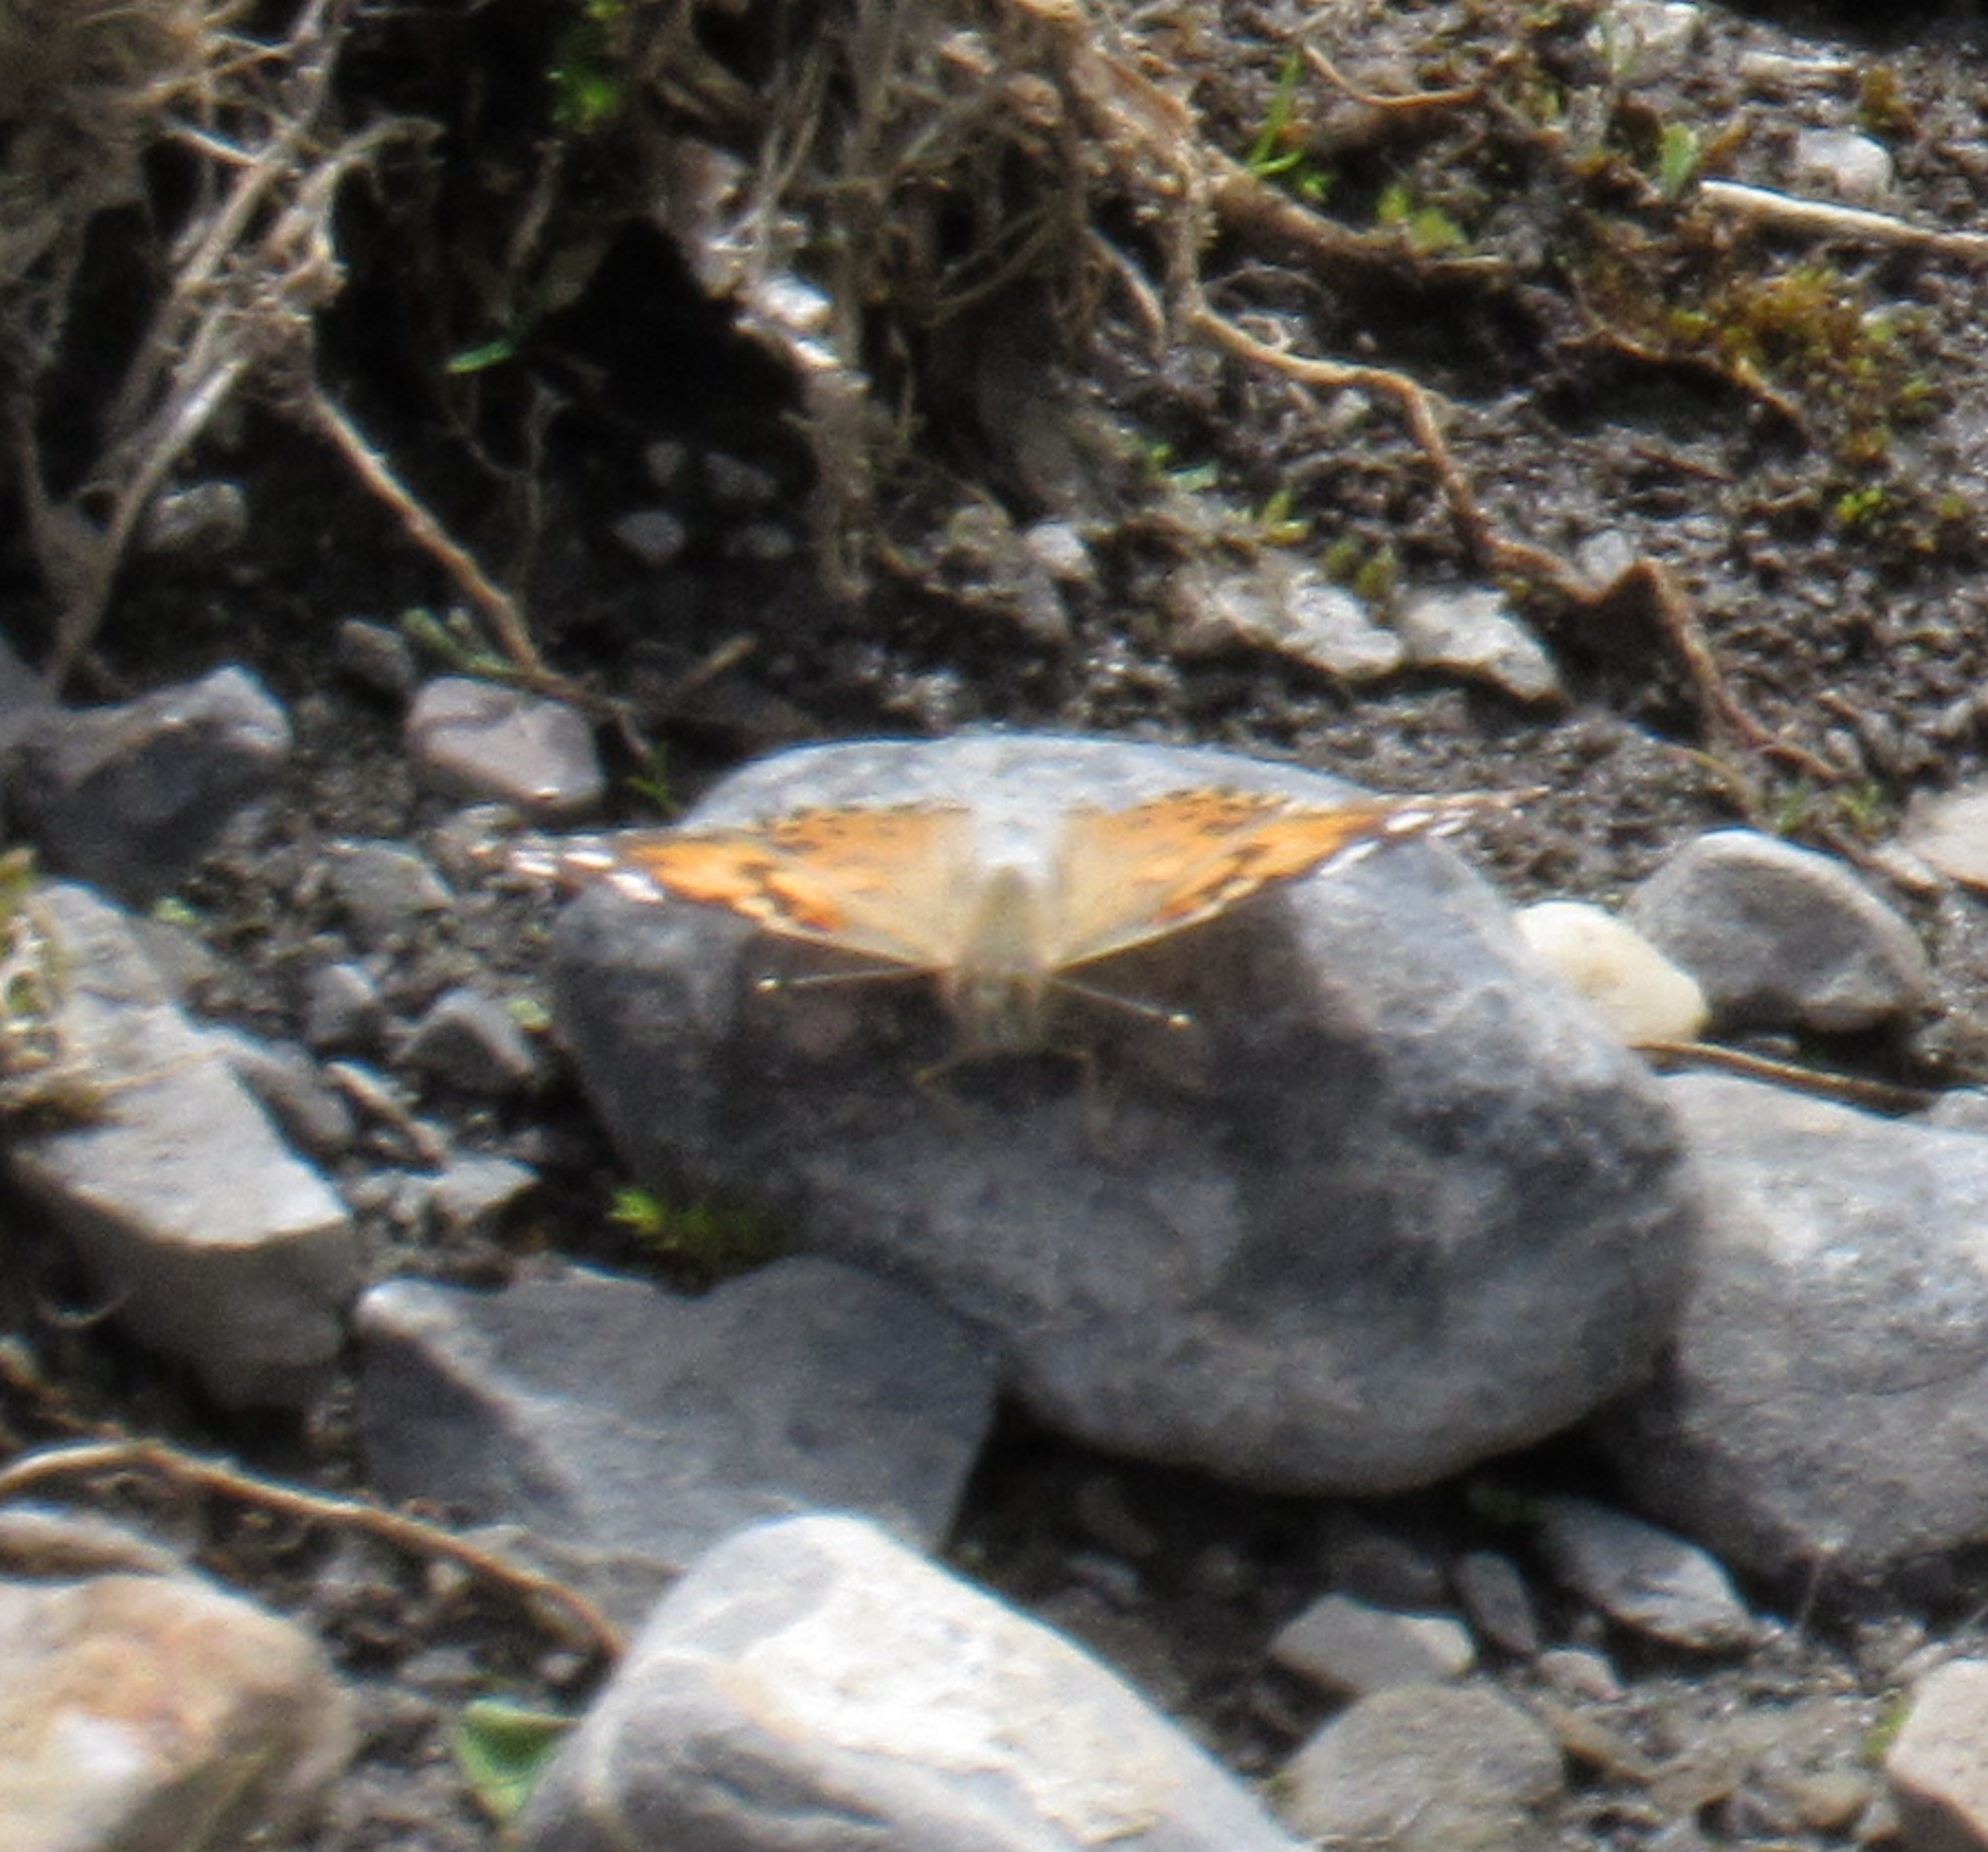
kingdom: Animalia
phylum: Arthropoda
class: Insecta
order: Lepidoptera
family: Nymphalidae
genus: Vanessa
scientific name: Vanessa cardui
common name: Painted lady
